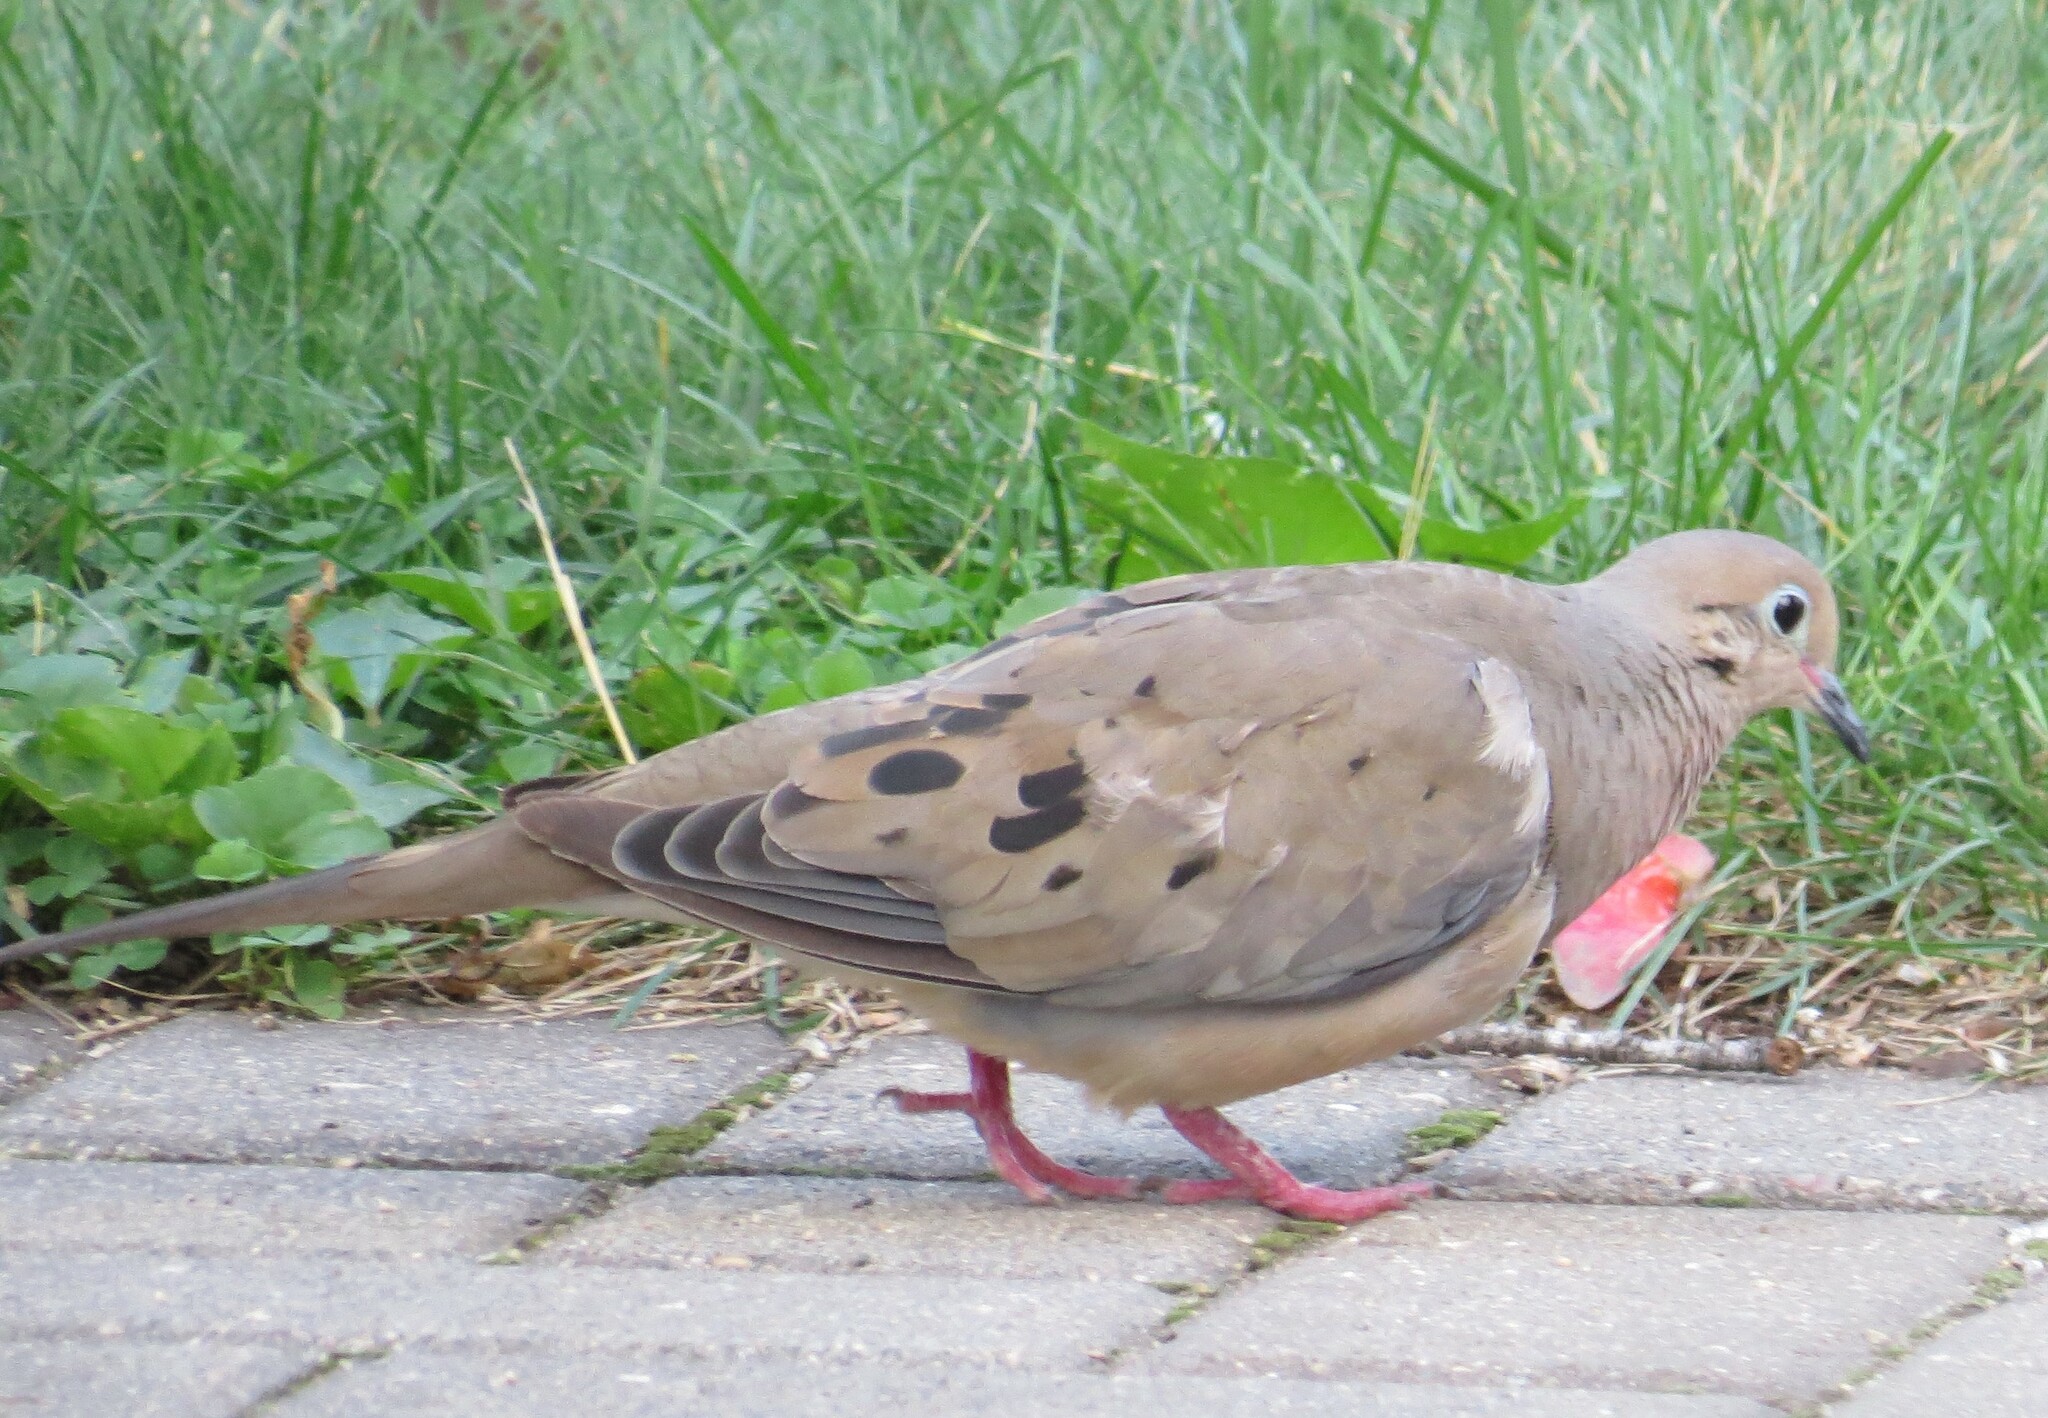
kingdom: Animalia
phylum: Chordata
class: Aves
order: Columbiformes
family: Columbidae
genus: Zenaida
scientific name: Zenaida macroura
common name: Mourning dove
